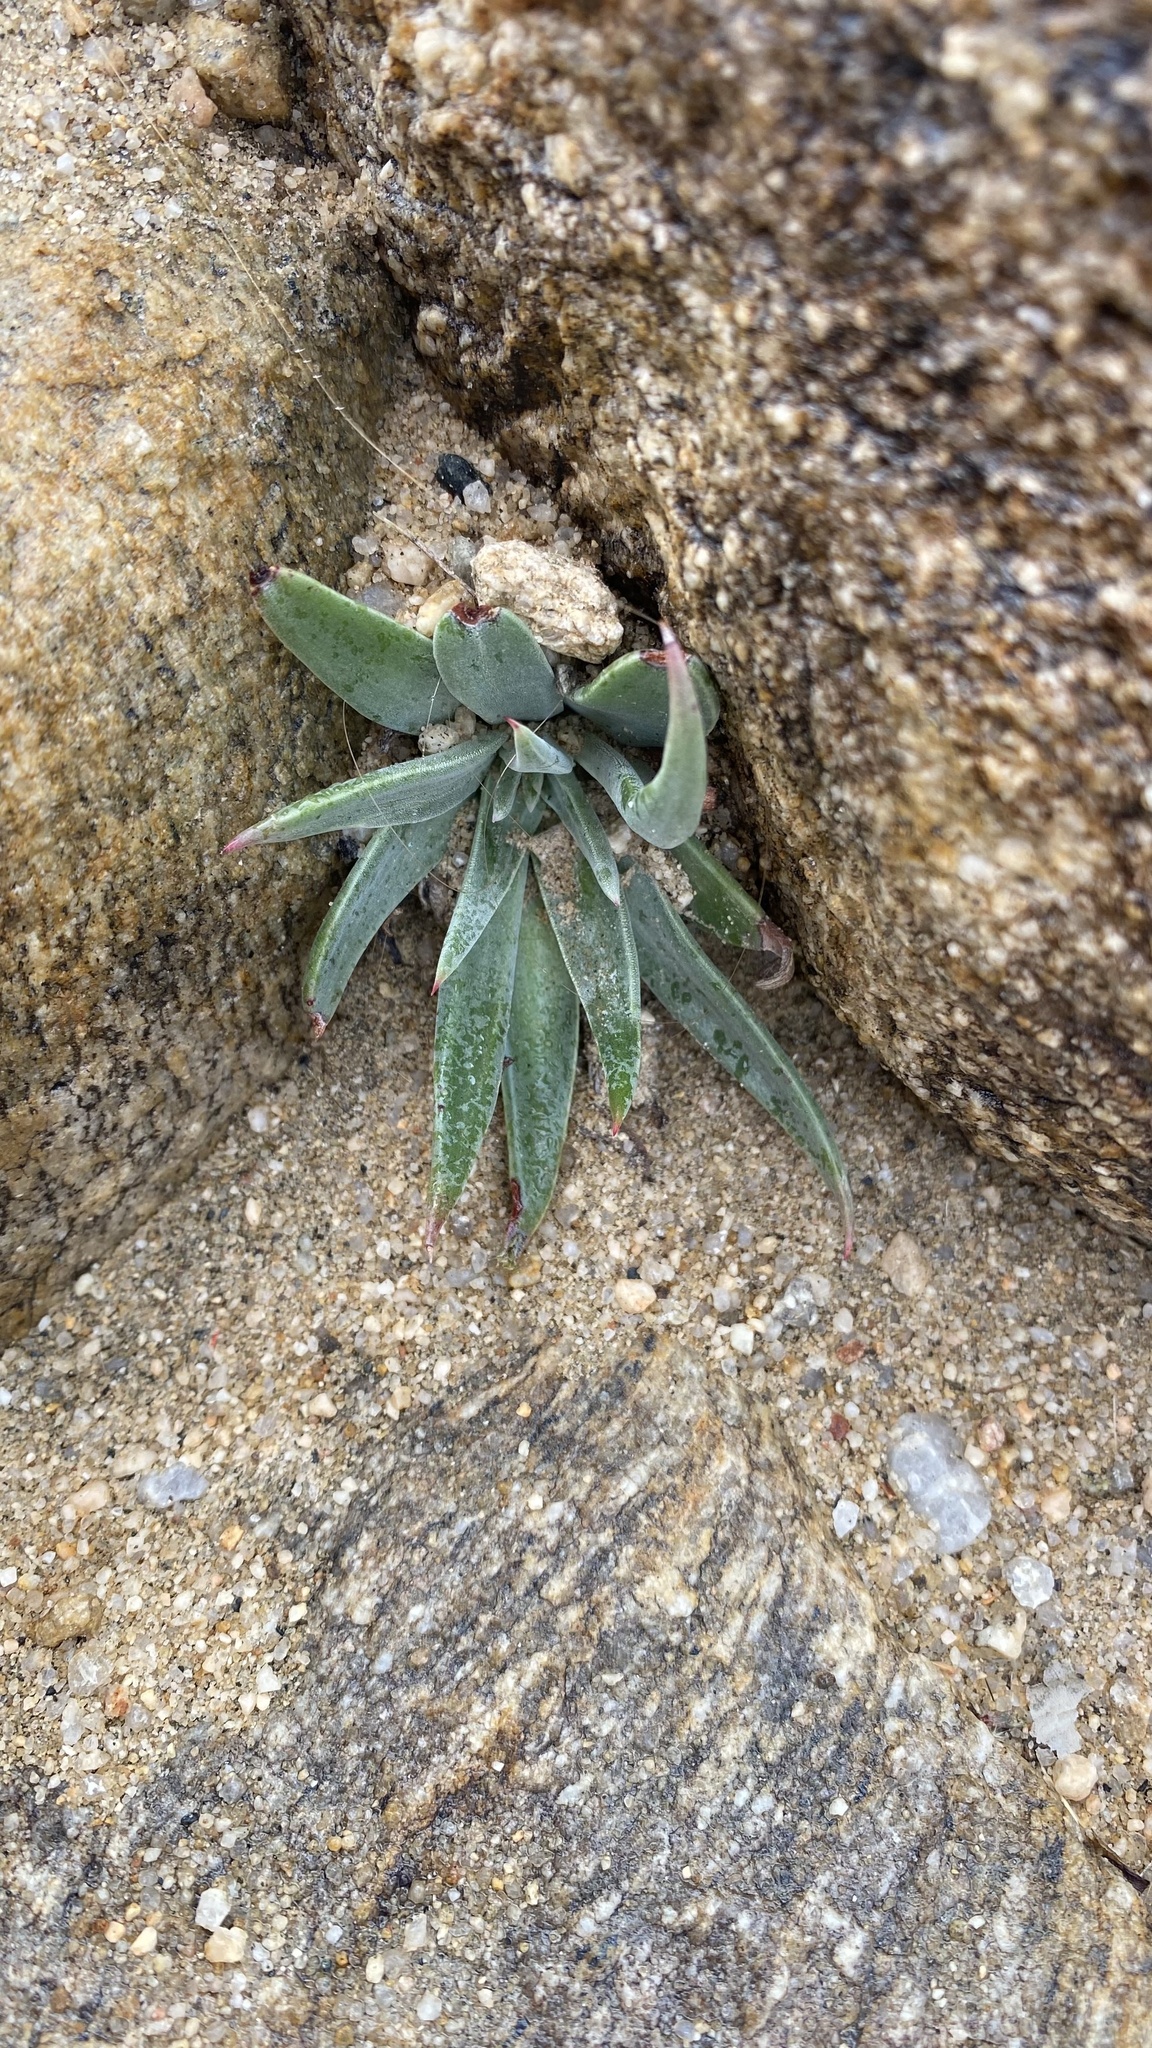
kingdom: Plantae
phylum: Tracheophyta
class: Magnoliopsida
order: Saxifragales
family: Crassulaceae
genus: Dudleya
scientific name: Dudleya saxosa
